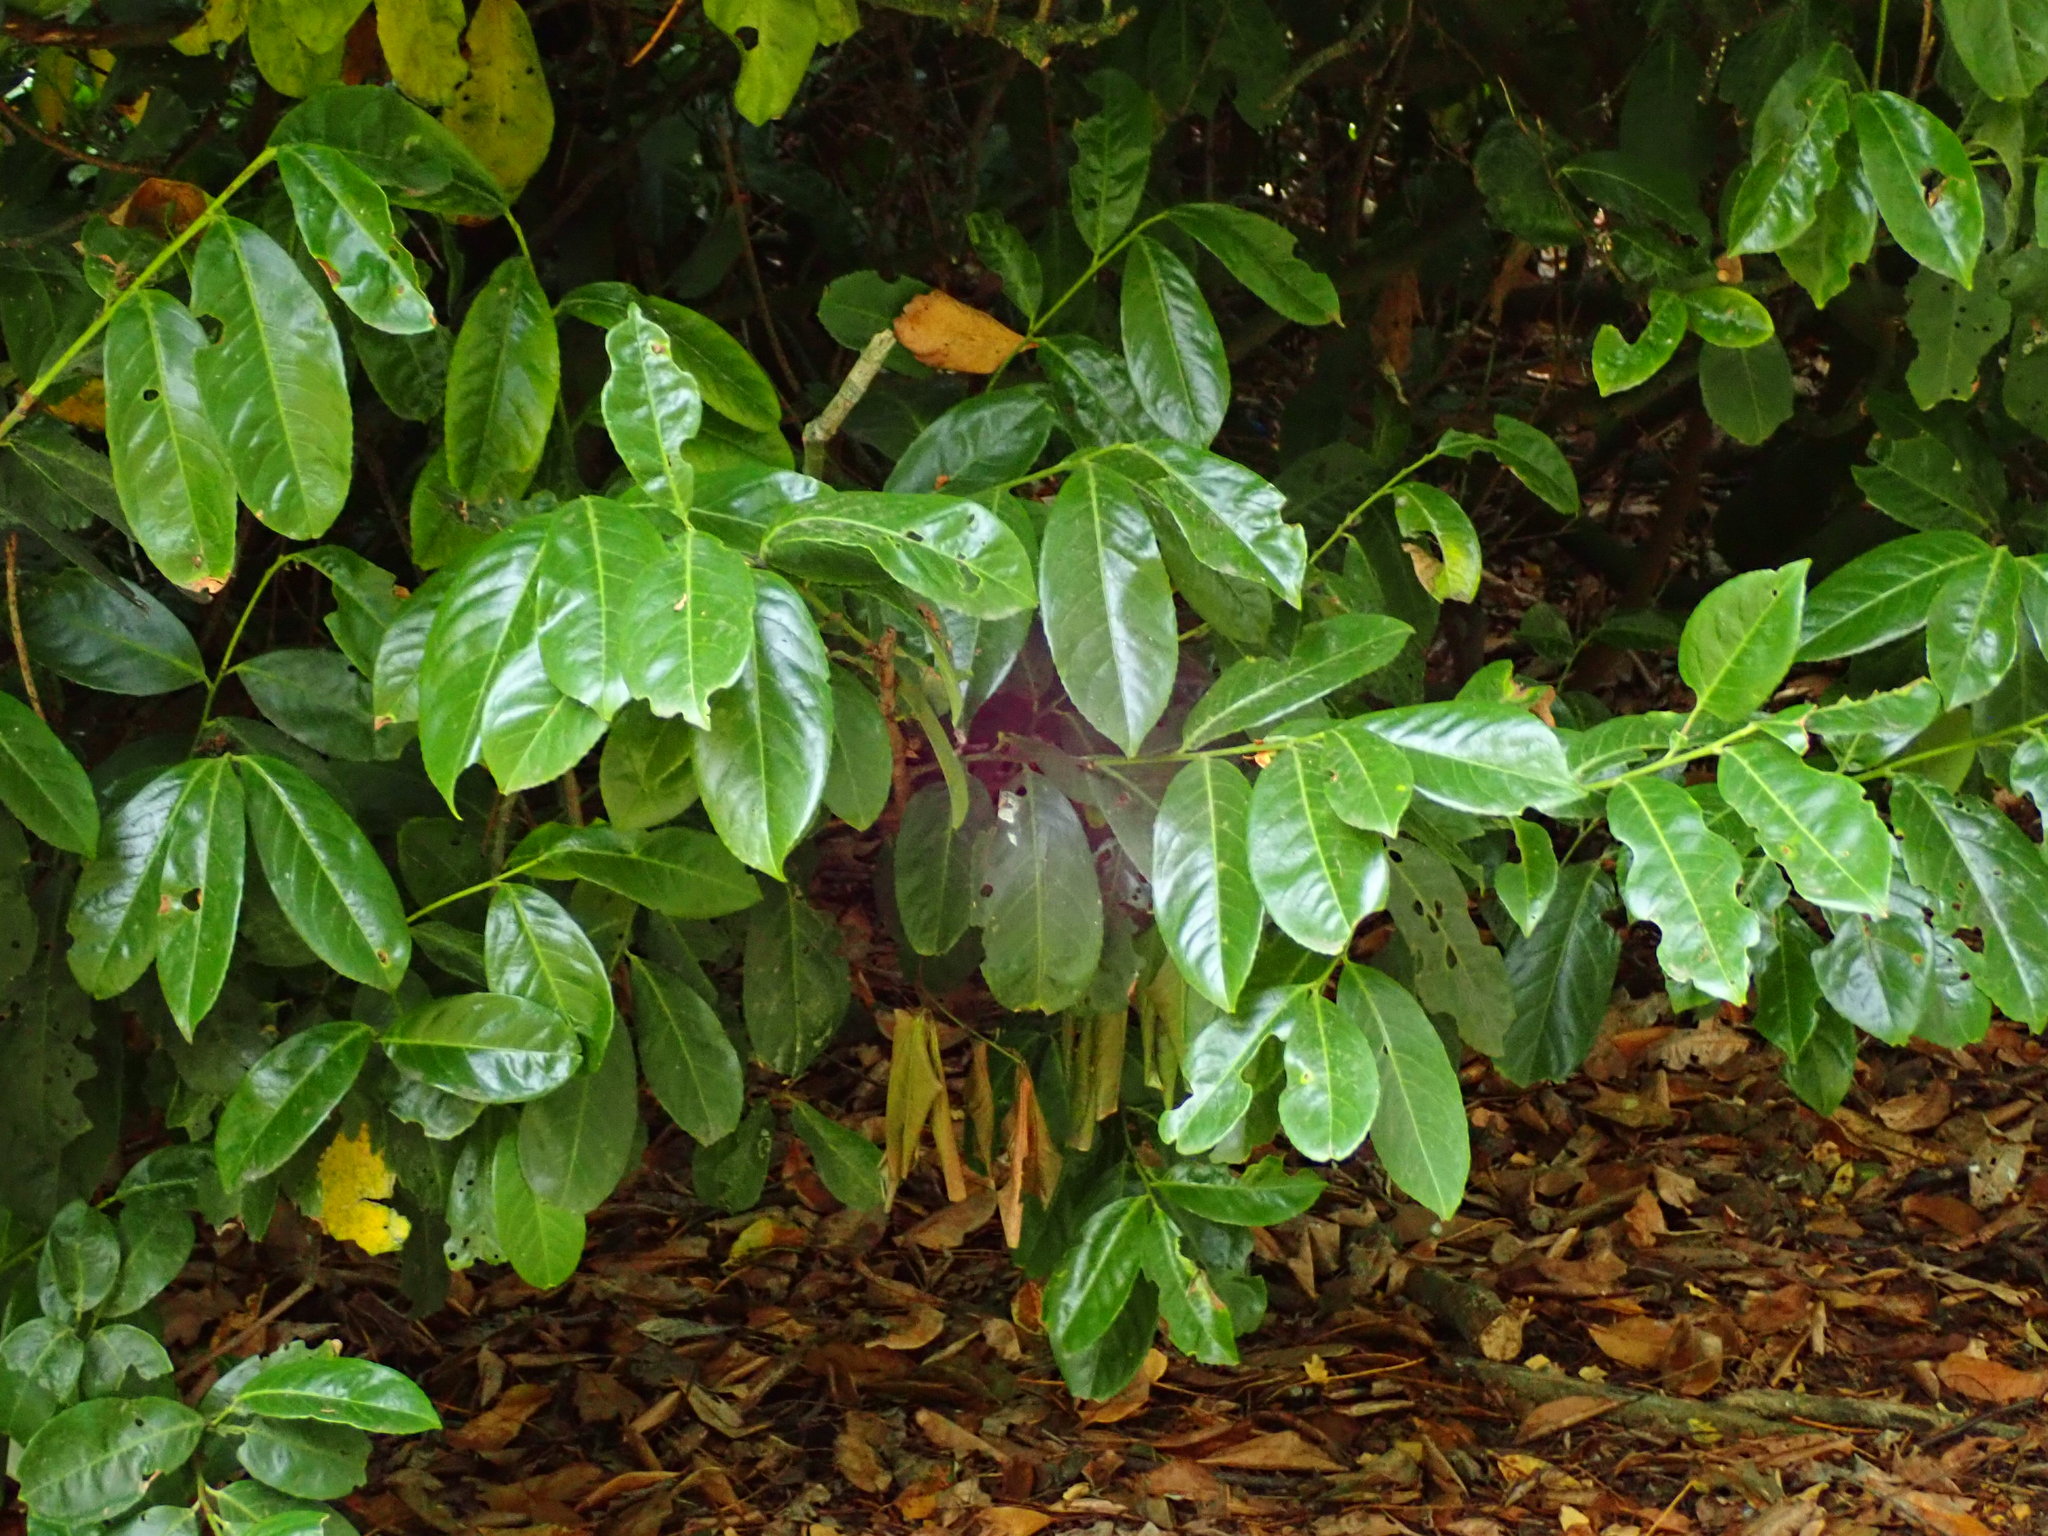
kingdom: Plantae
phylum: Tracheophyta
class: Magnoliopsida
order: Rosales
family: Rosaceae
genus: Prunus
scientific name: Prunus laurocerasus
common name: Cherry laurel
